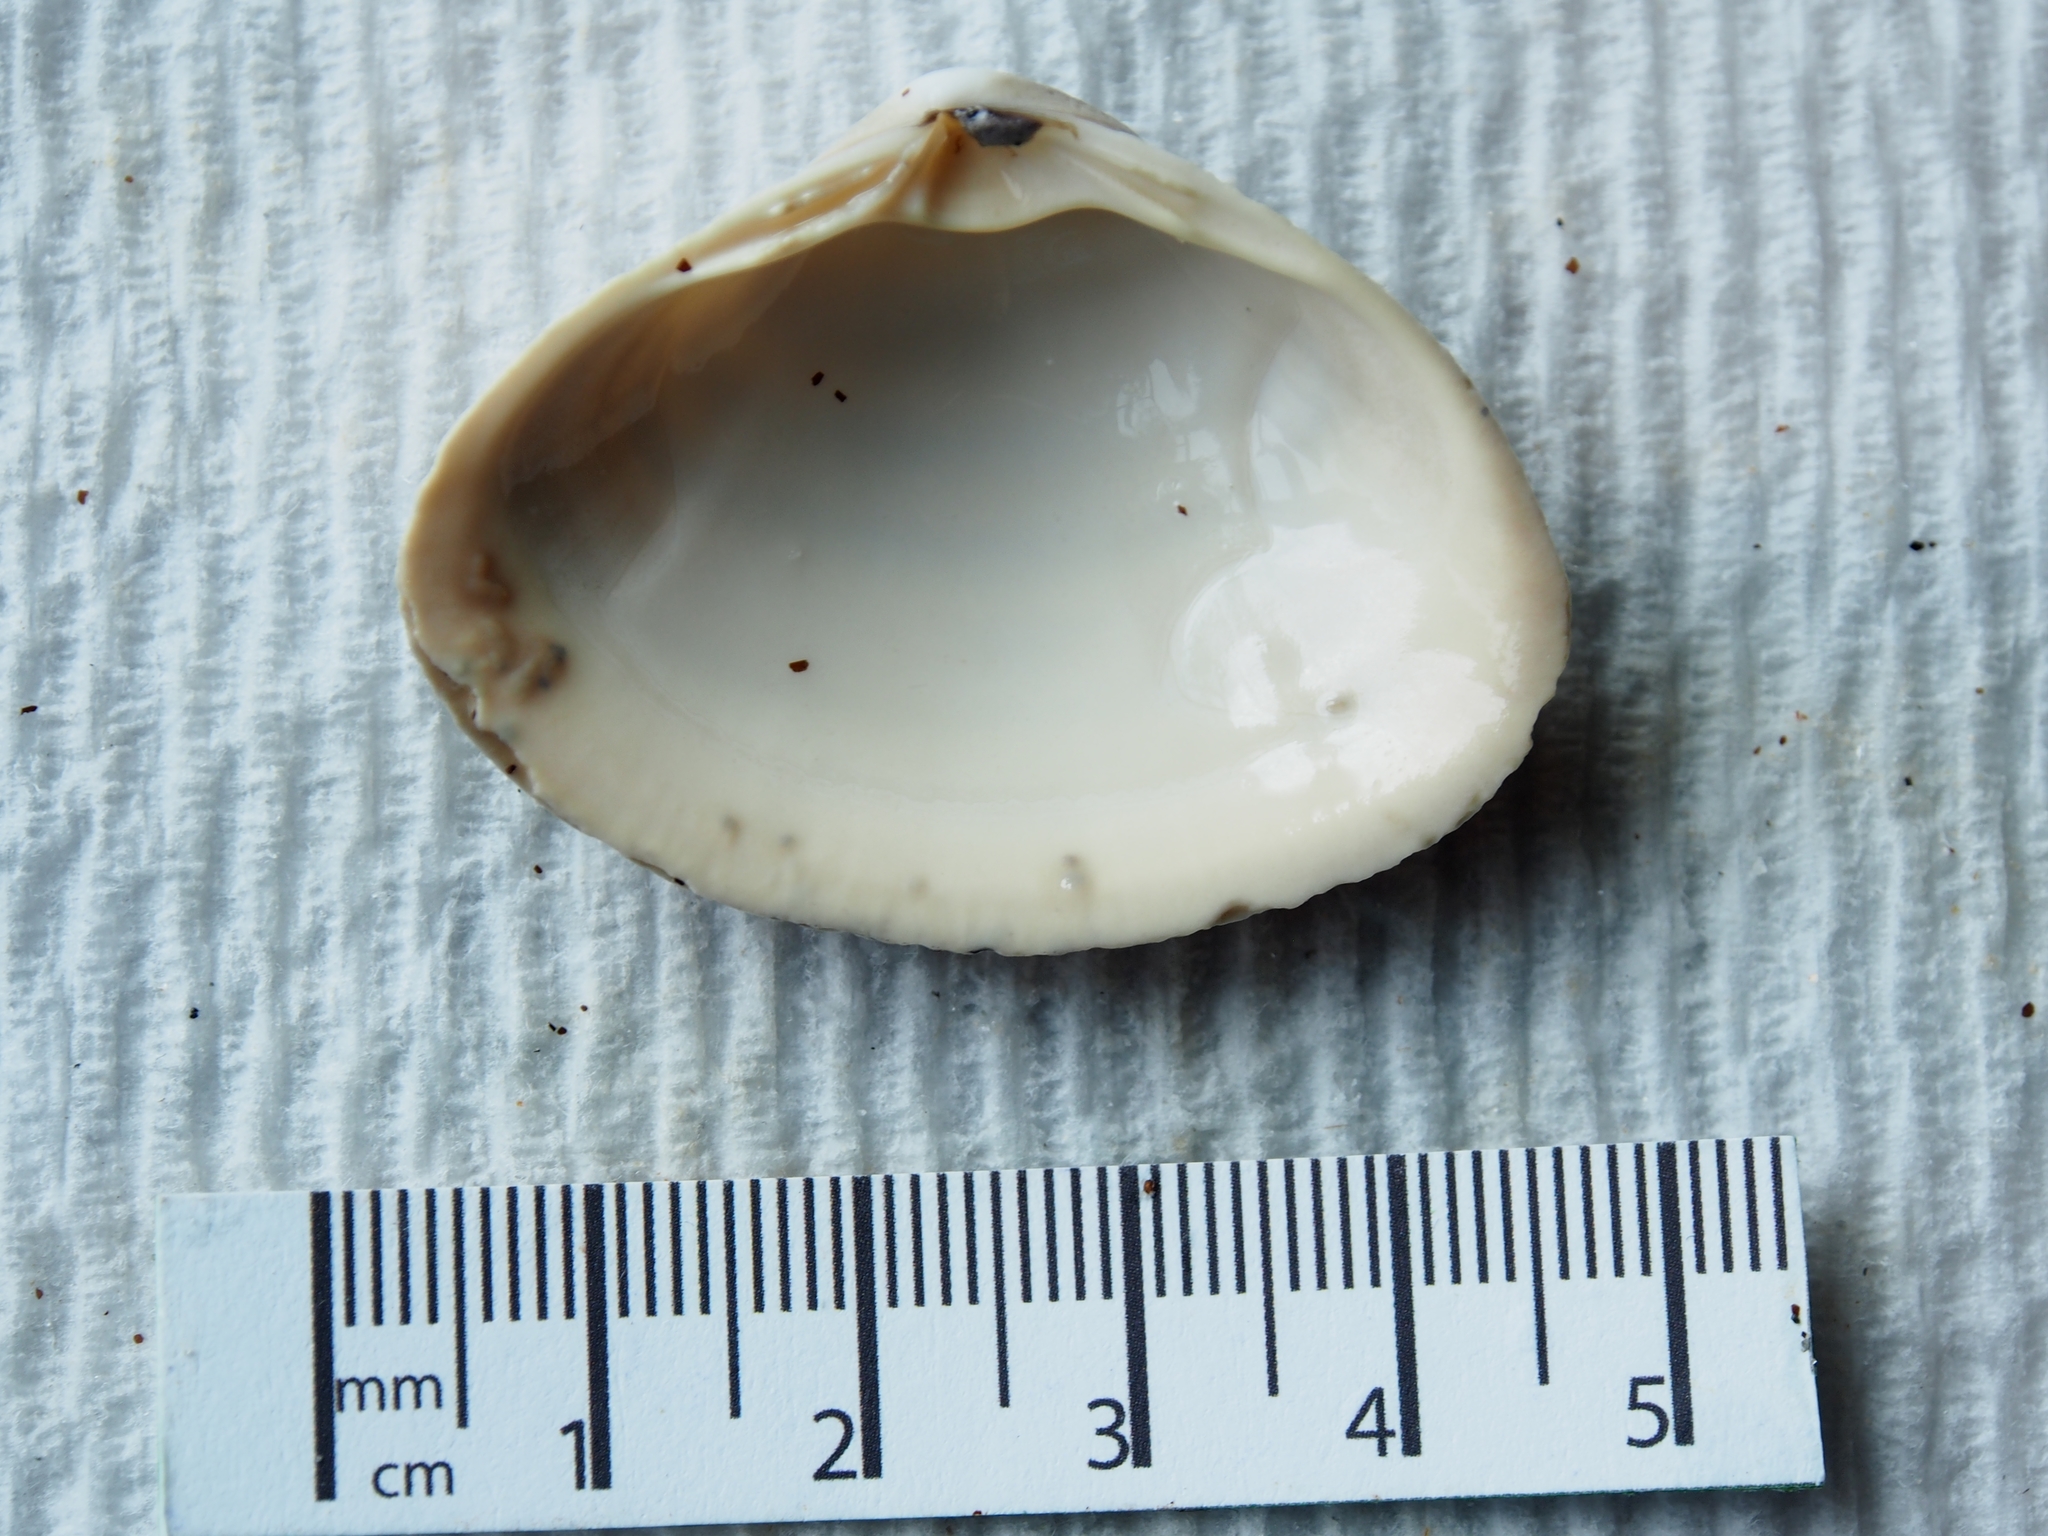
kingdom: Animalia
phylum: Mollusca
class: Bivalvia
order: Venerida
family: Mactridae
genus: Spisula
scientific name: Spisula solidissima
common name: Atlantic surf clam
